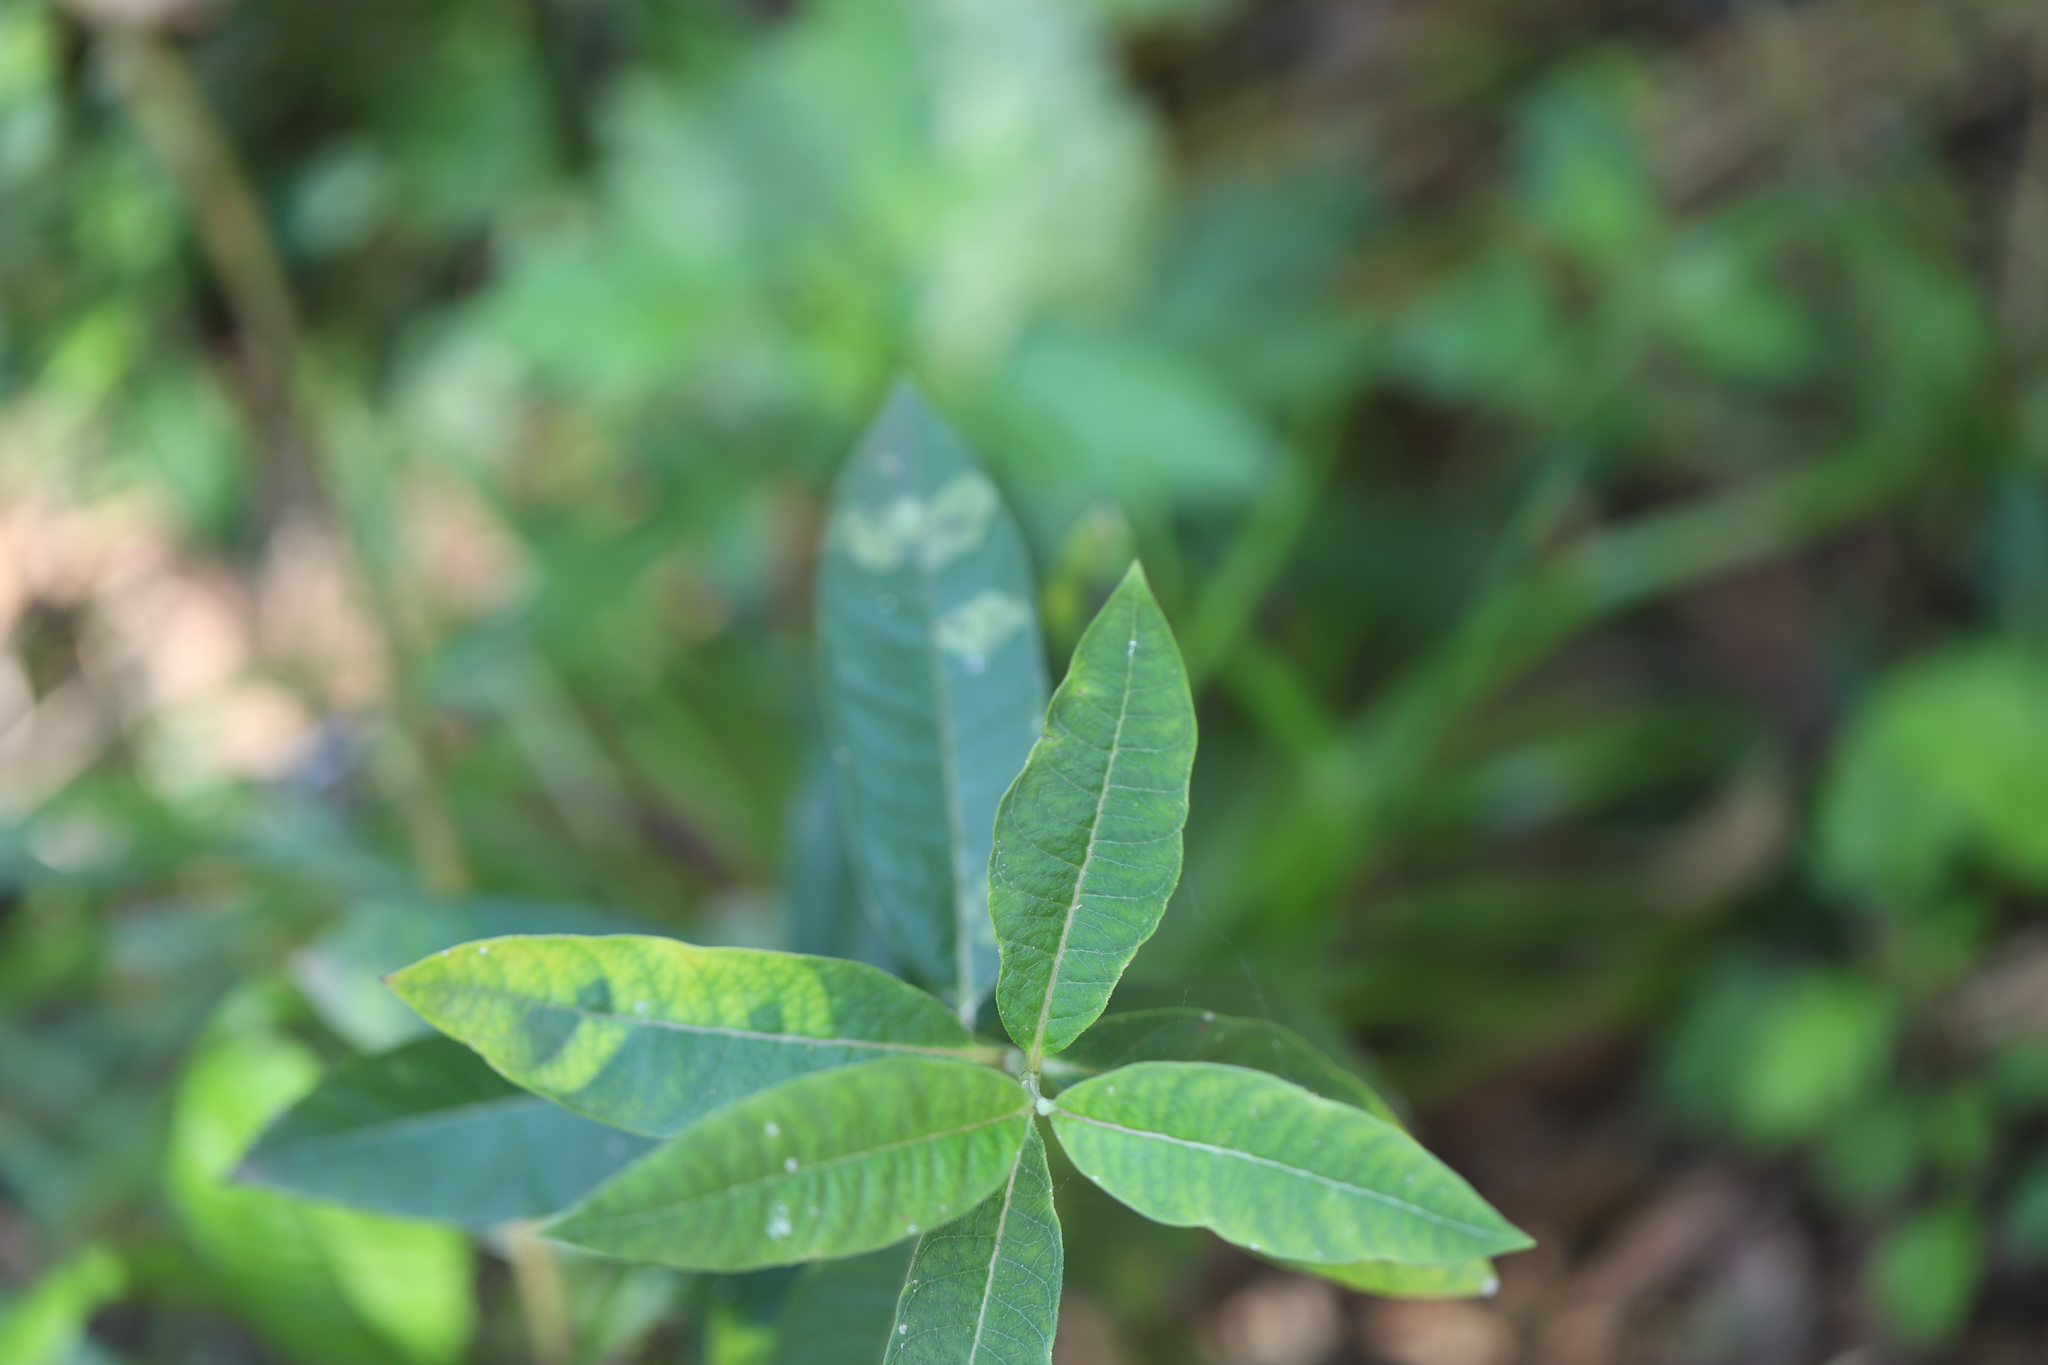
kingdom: Plantae
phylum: Tracheophyta
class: Magnoliopsida
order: Gentianales
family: Apocynaceae
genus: Asclepias
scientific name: Asclepias syriaca
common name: Common milkweed
